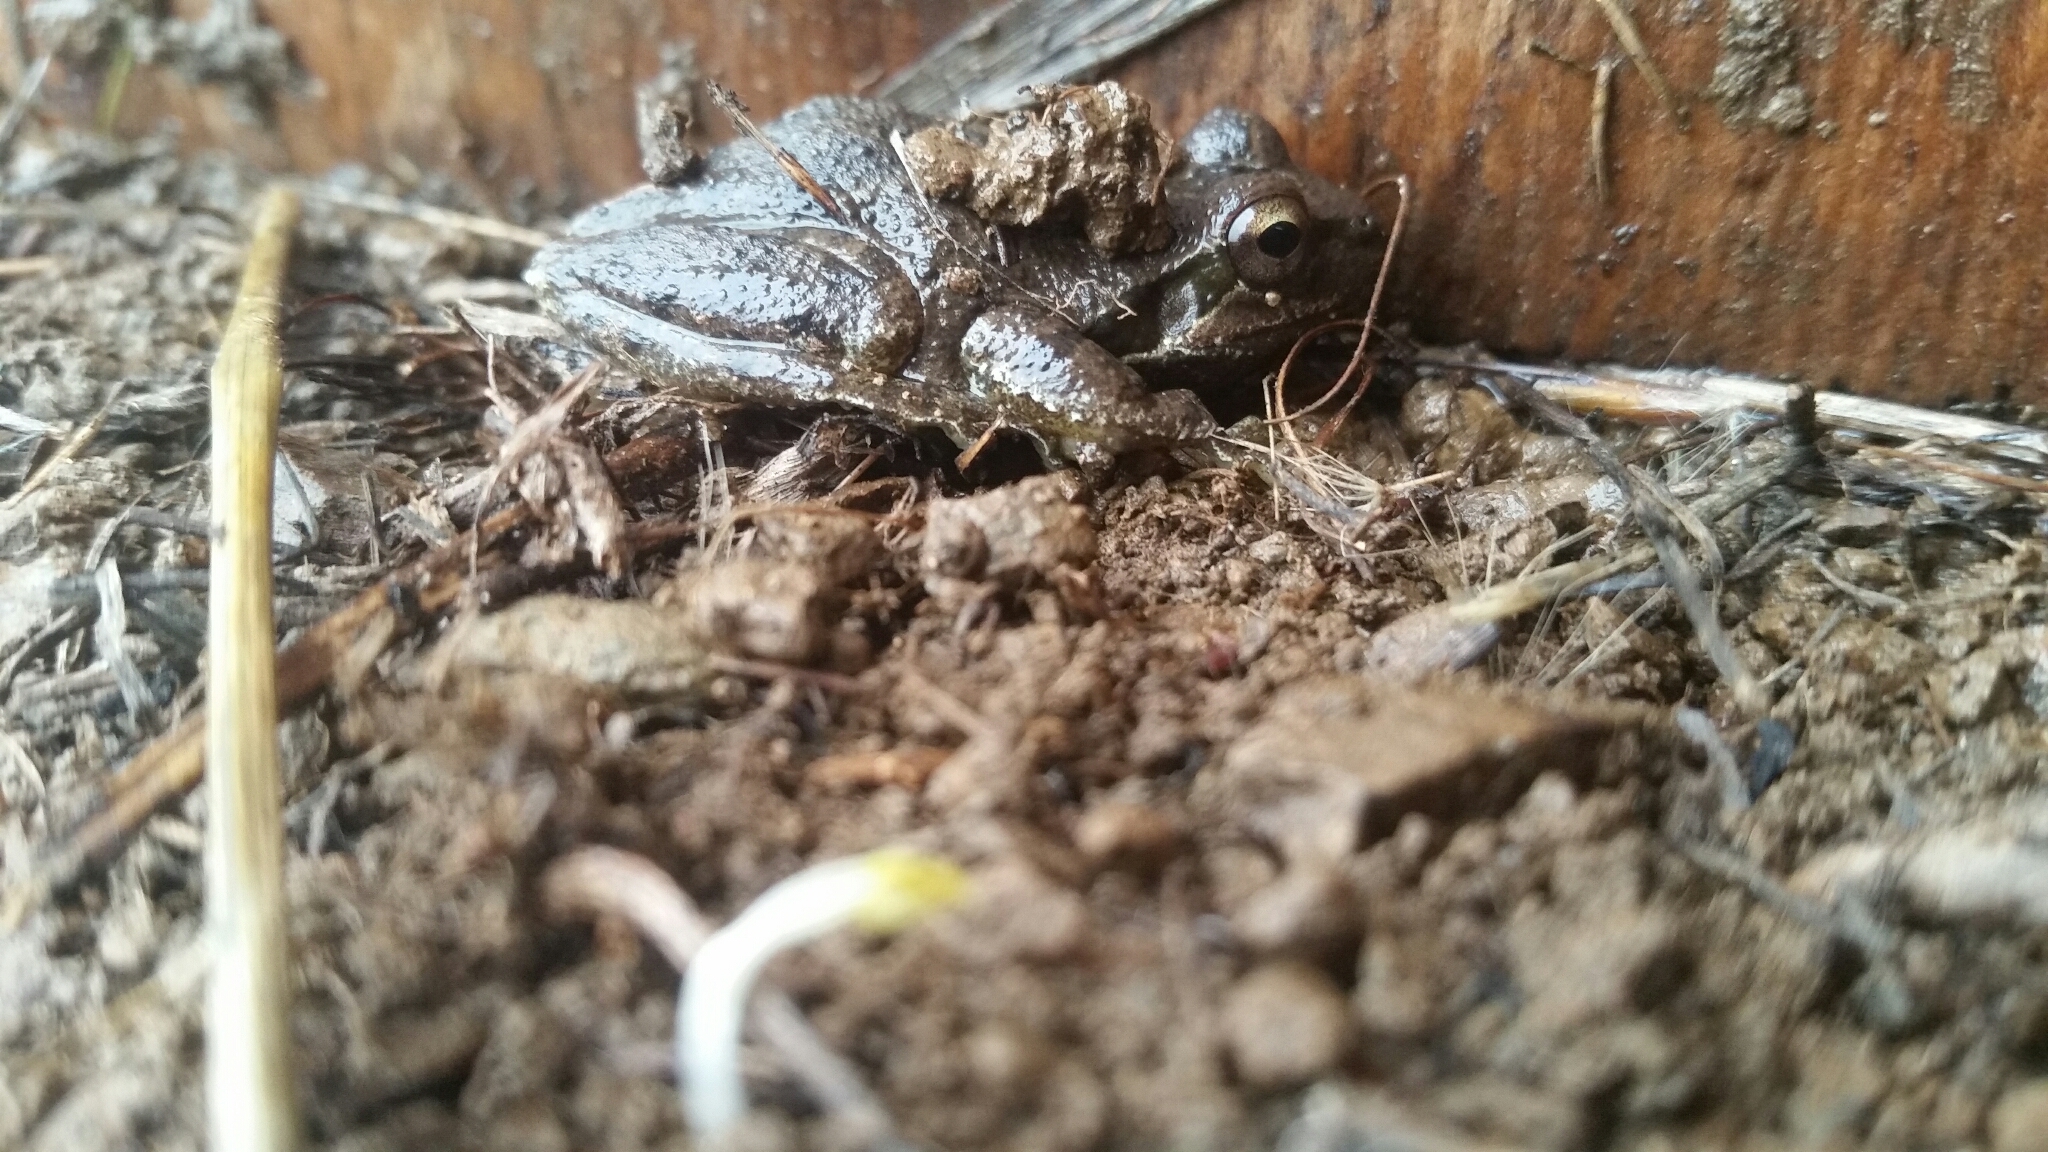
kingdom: Animalia
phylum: Chordata
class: Amphibia
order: Anura
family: Hylidae
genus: Pseudacris
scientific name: Pseudacris regilla
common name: Pacific chorus frog
